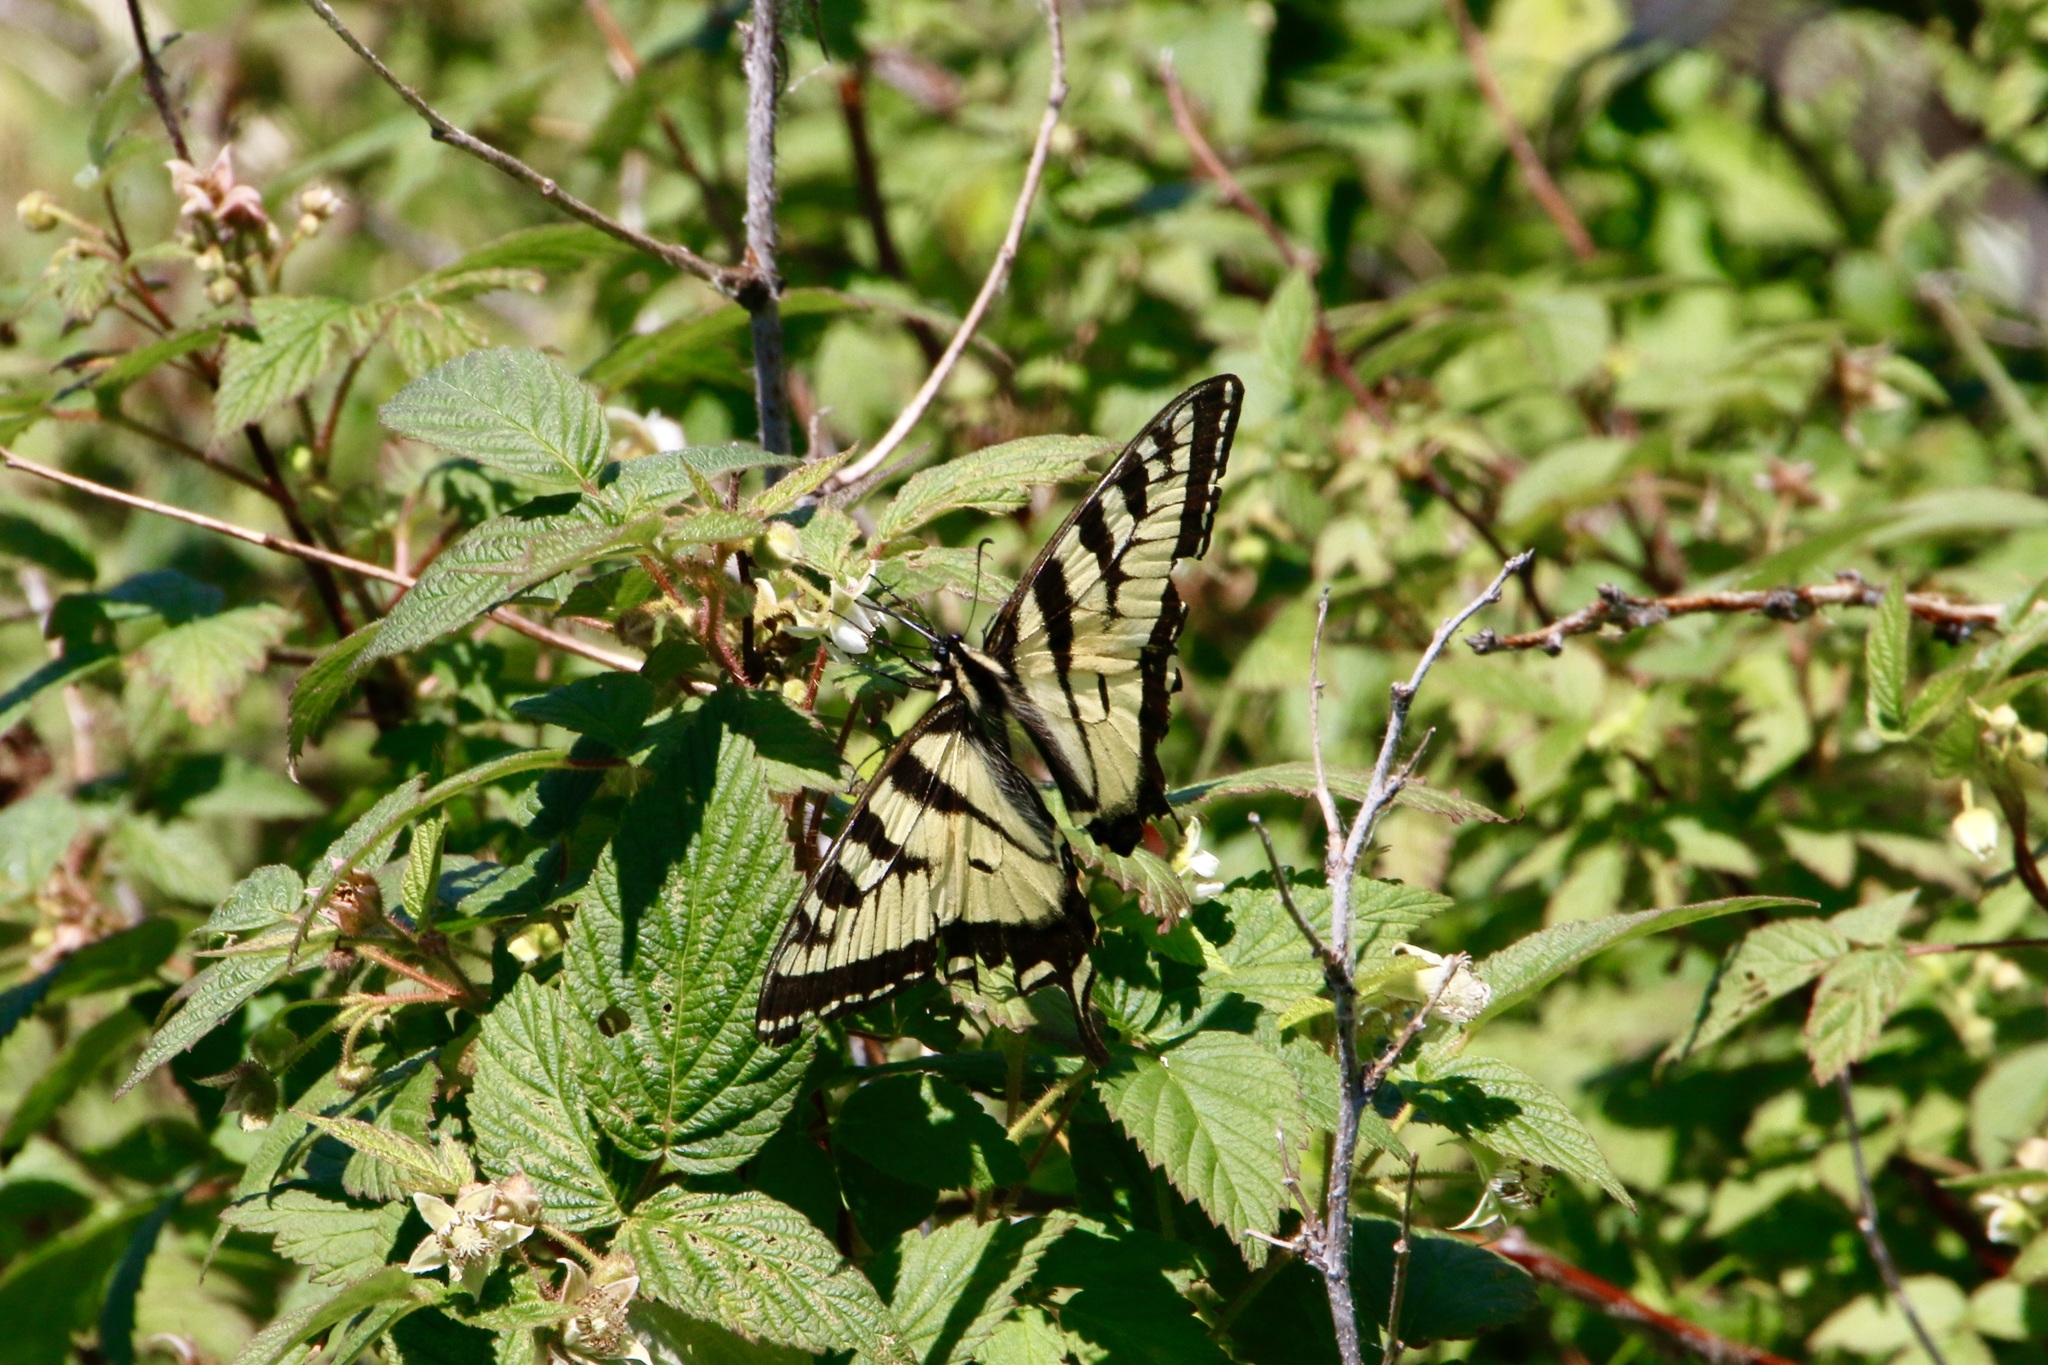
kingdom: Animalia
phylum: Arthropoda
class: Insecta
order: Lepidoptera
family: Papilionidae
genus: Papilio
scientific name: Papilio canadensis
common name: Canadian tiger swallowtail
